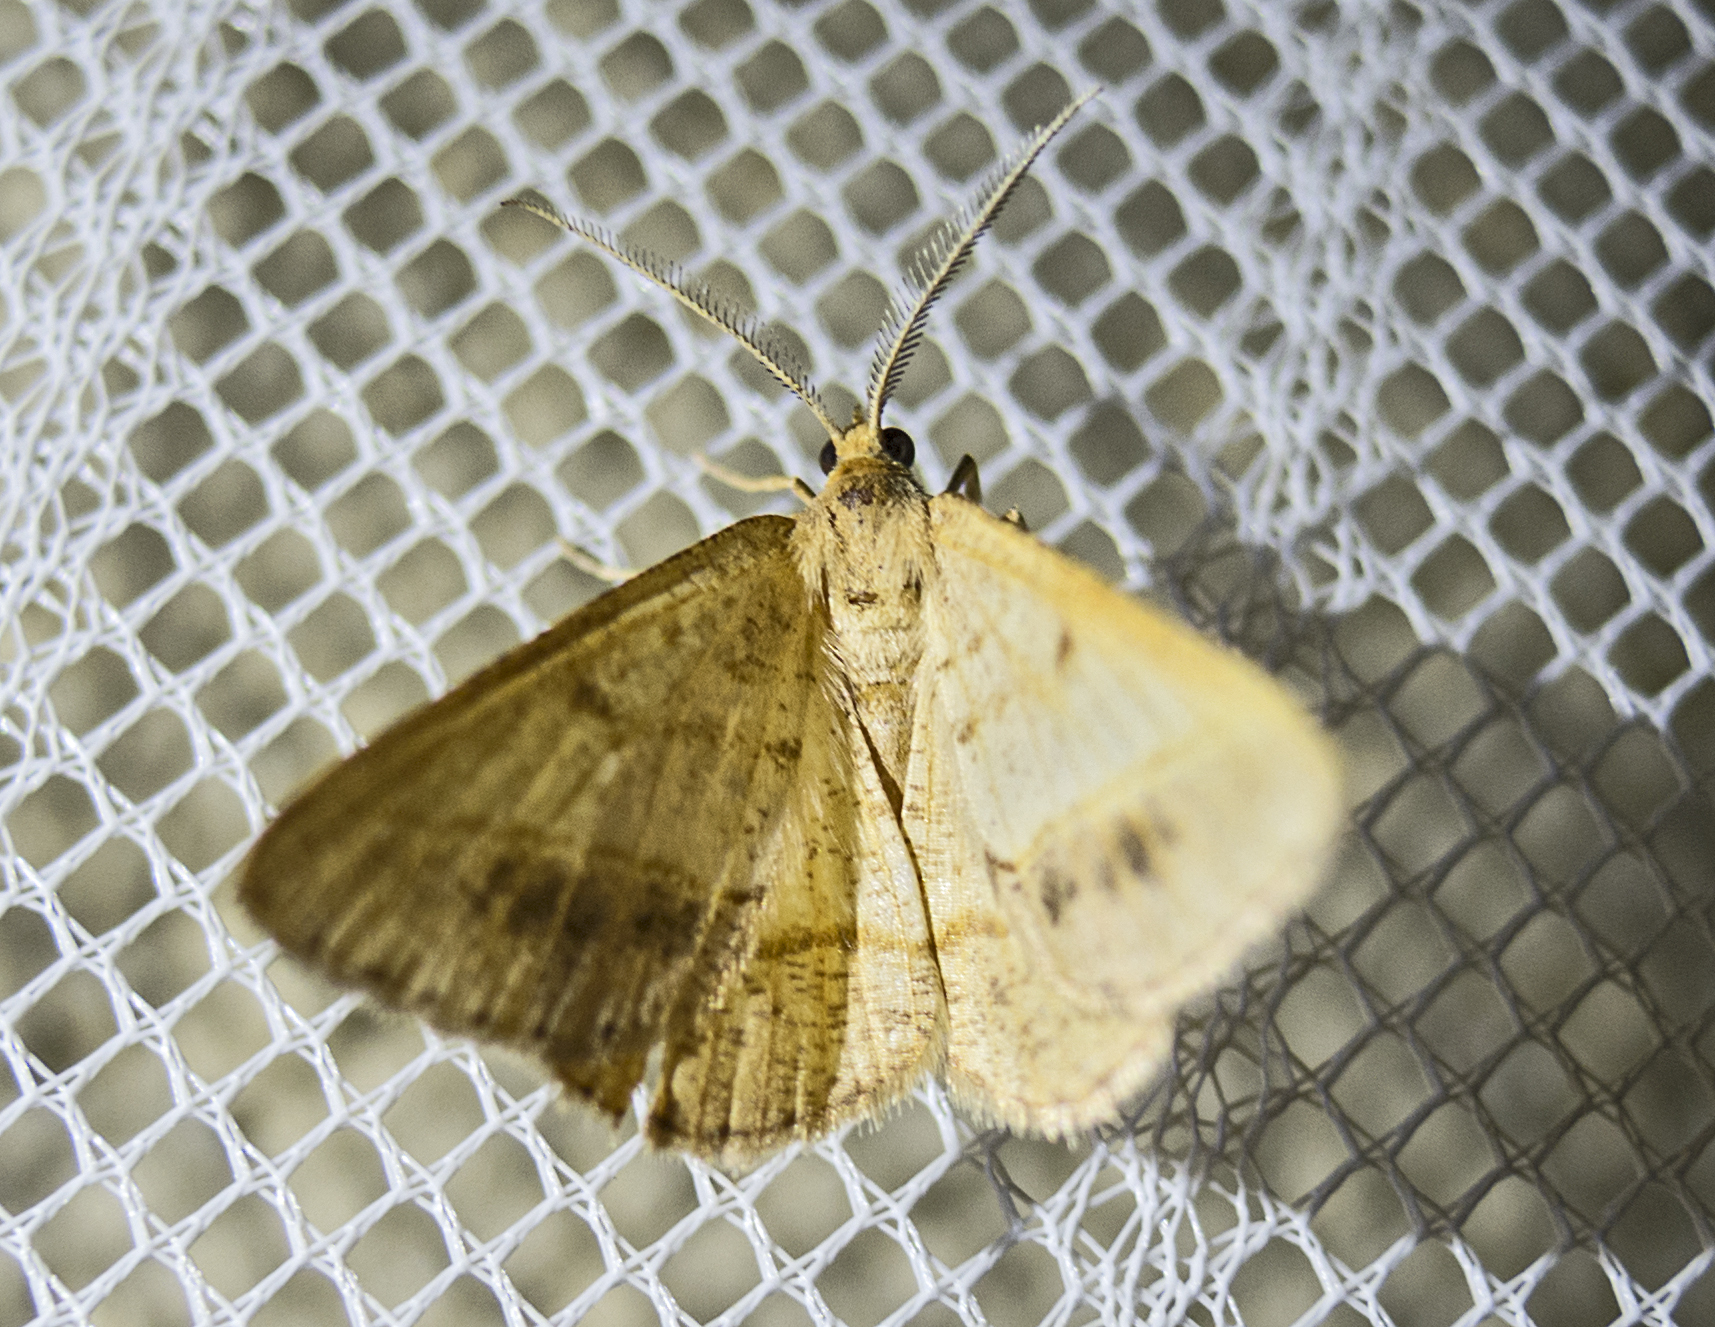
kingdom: Animalia
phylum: Arthropoda
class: Insecta
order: Lepidoptera
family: Geometridae
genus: Tephrina
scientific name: Tephrina arenacearia
